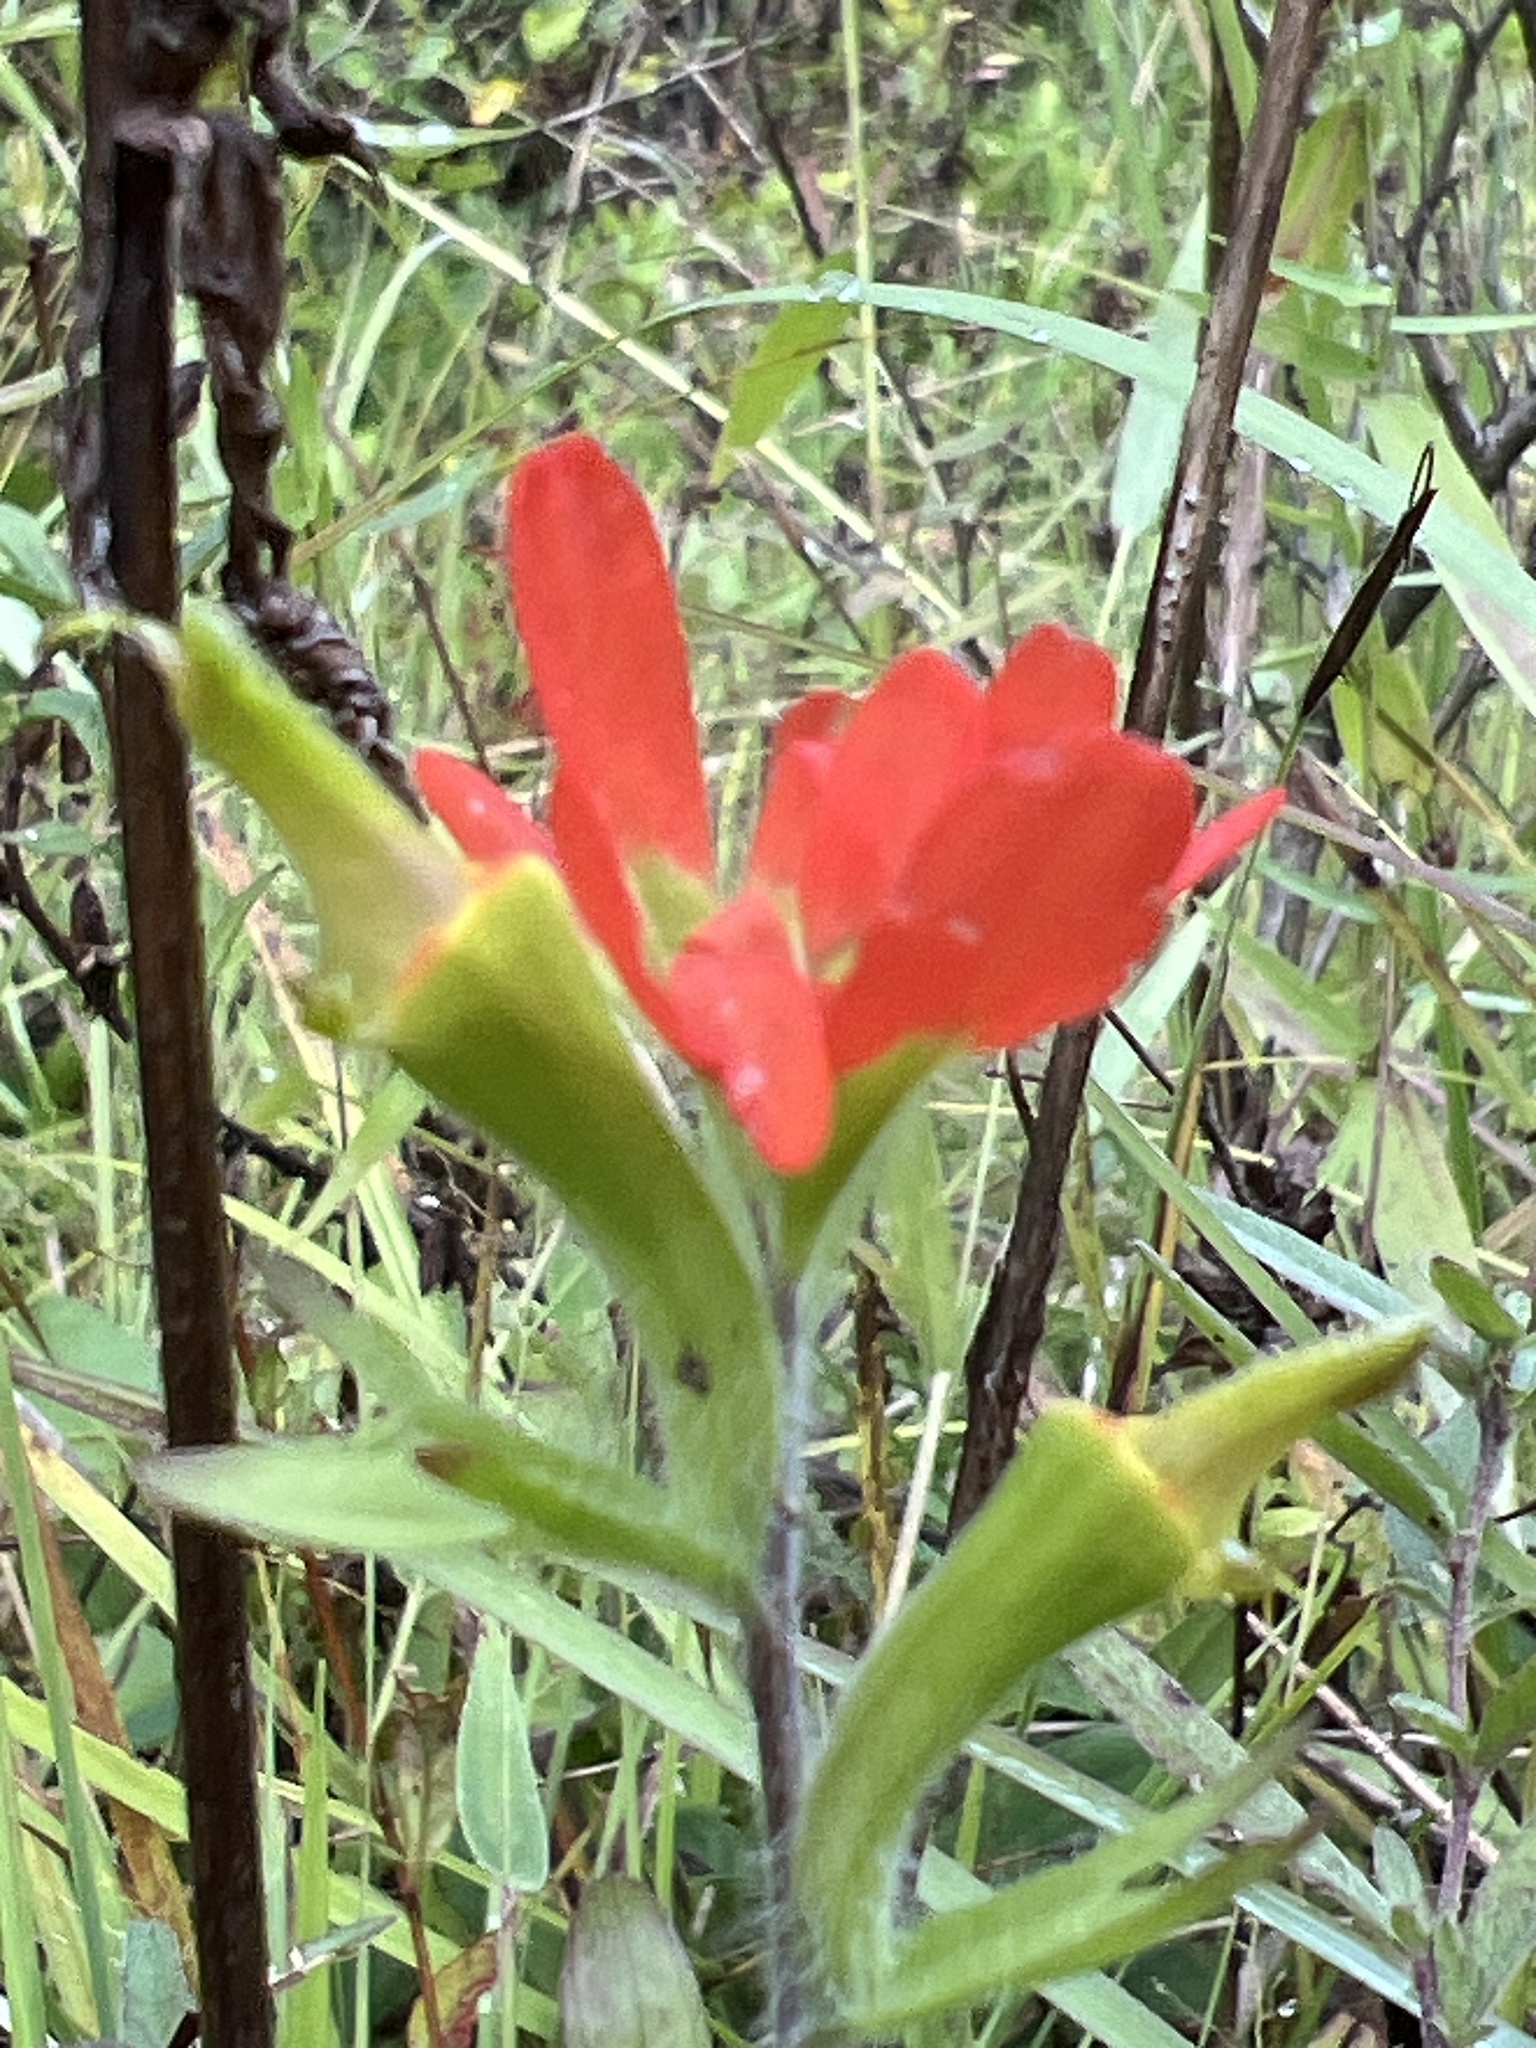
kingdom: Plantae
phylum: Tracheophyta
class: Magnoliopsida
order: Lamiales
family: Orobanchaceae
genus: Castilleja
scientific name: Castilleja coccinea
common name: Scarlet paintbrush
